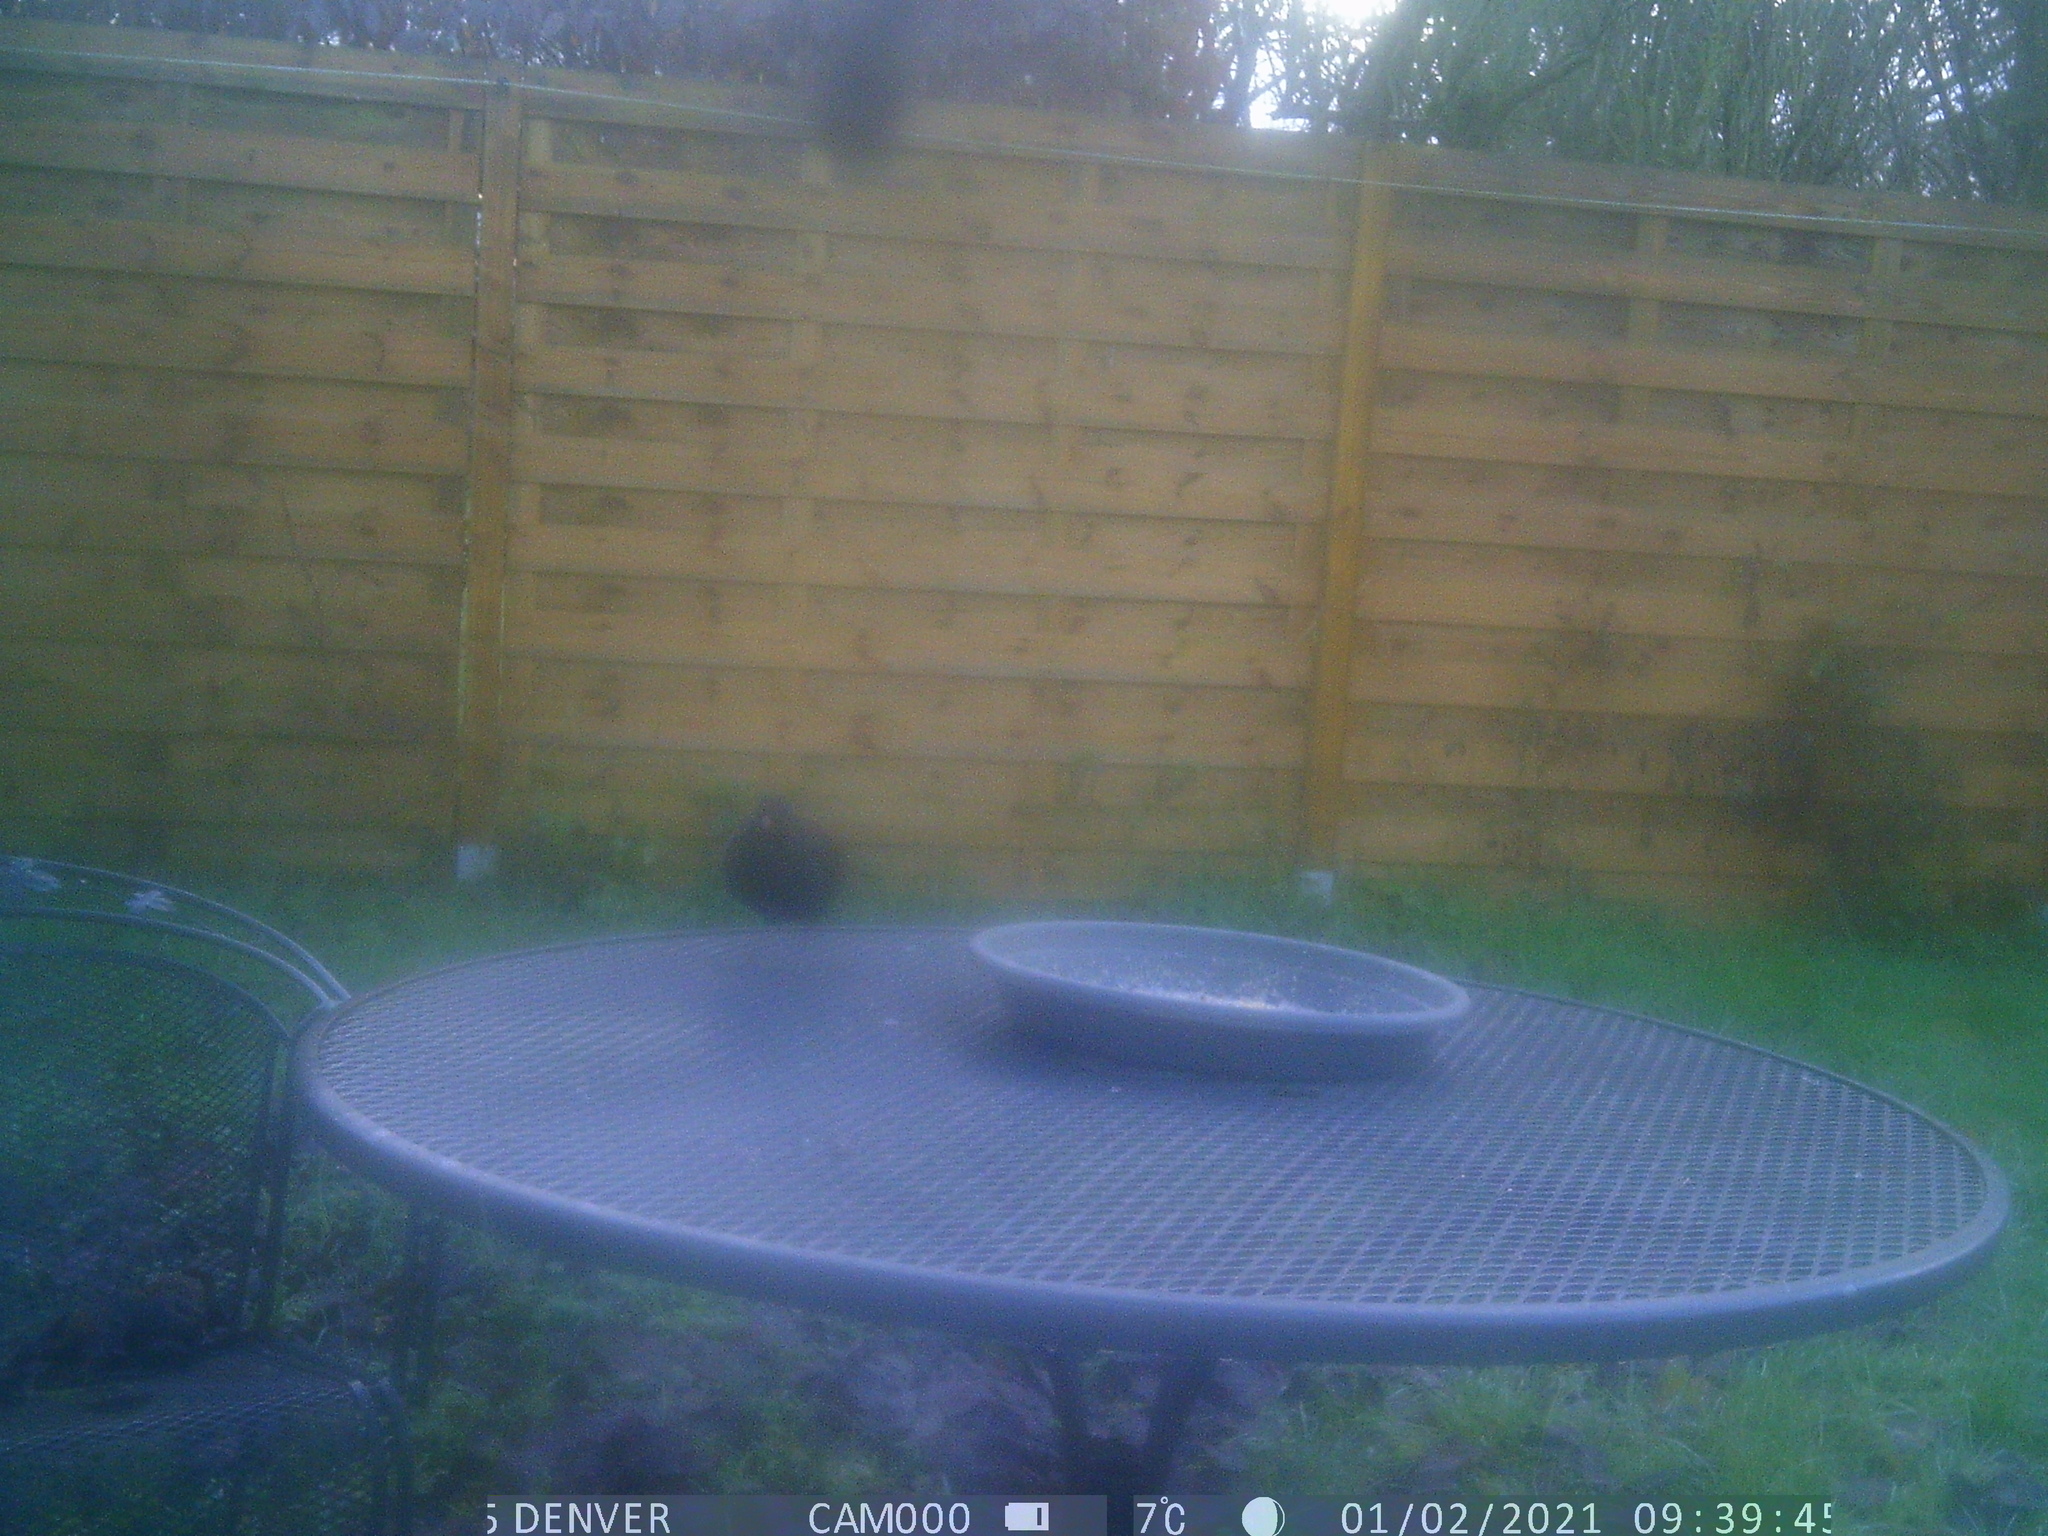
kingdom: Animalia
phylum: Chordata
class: Aves
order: Passeriformes
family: Turdidae
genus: Turdus
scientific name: Turdus merula
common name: Common blackbird
